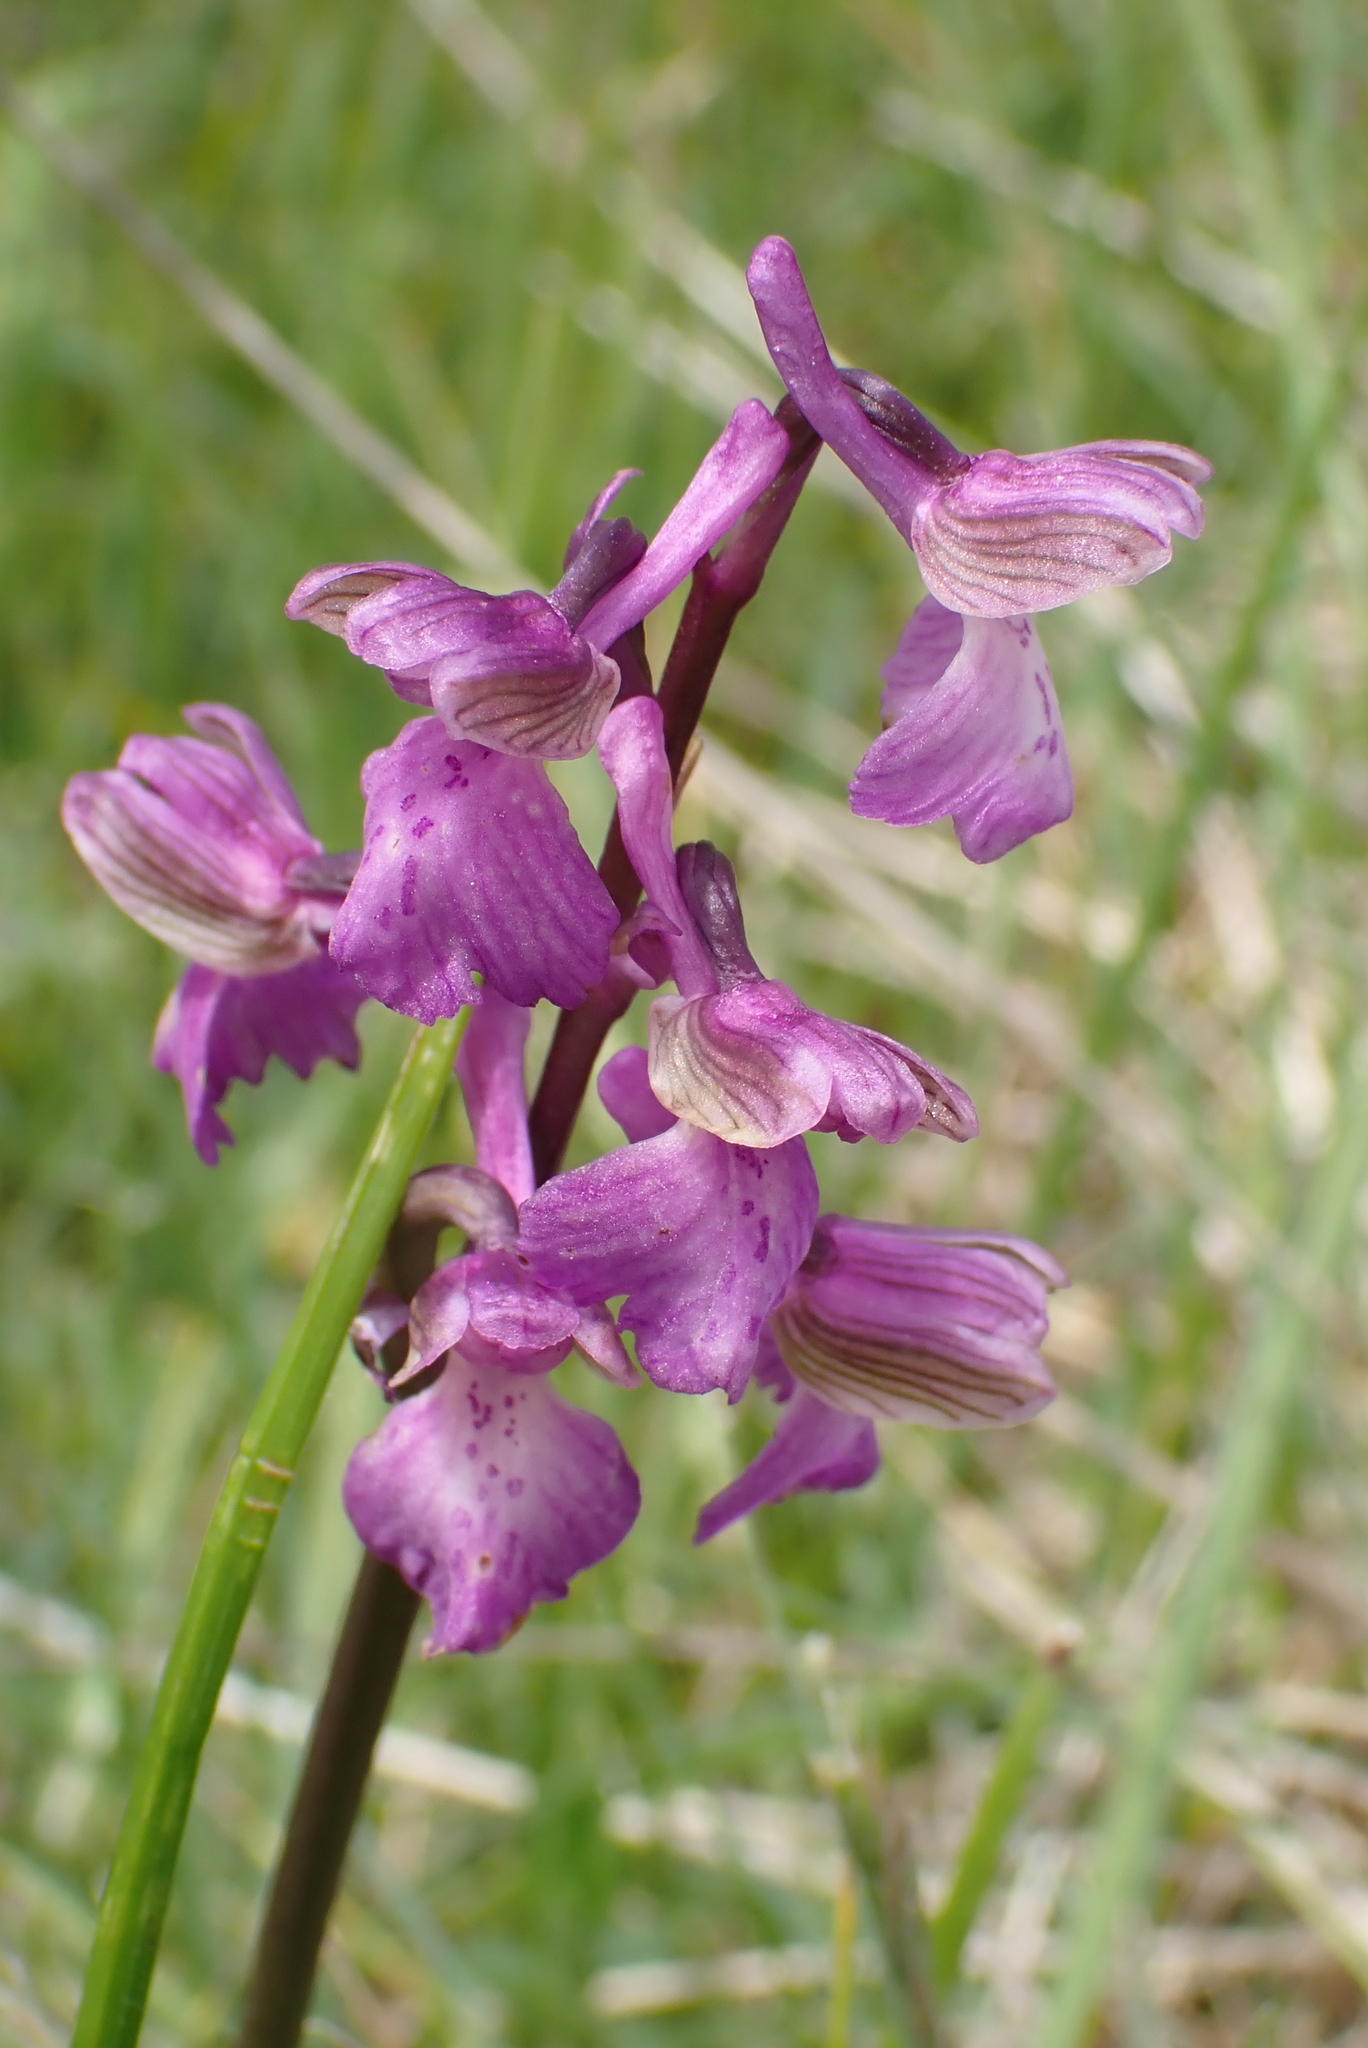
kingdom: Plantae
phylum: Tracheophyta
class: Liliopsida
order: Asparagales
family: Orchidaceae
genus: Anacamptis
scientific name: Anacamptis morio
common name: Green-winged orchid
